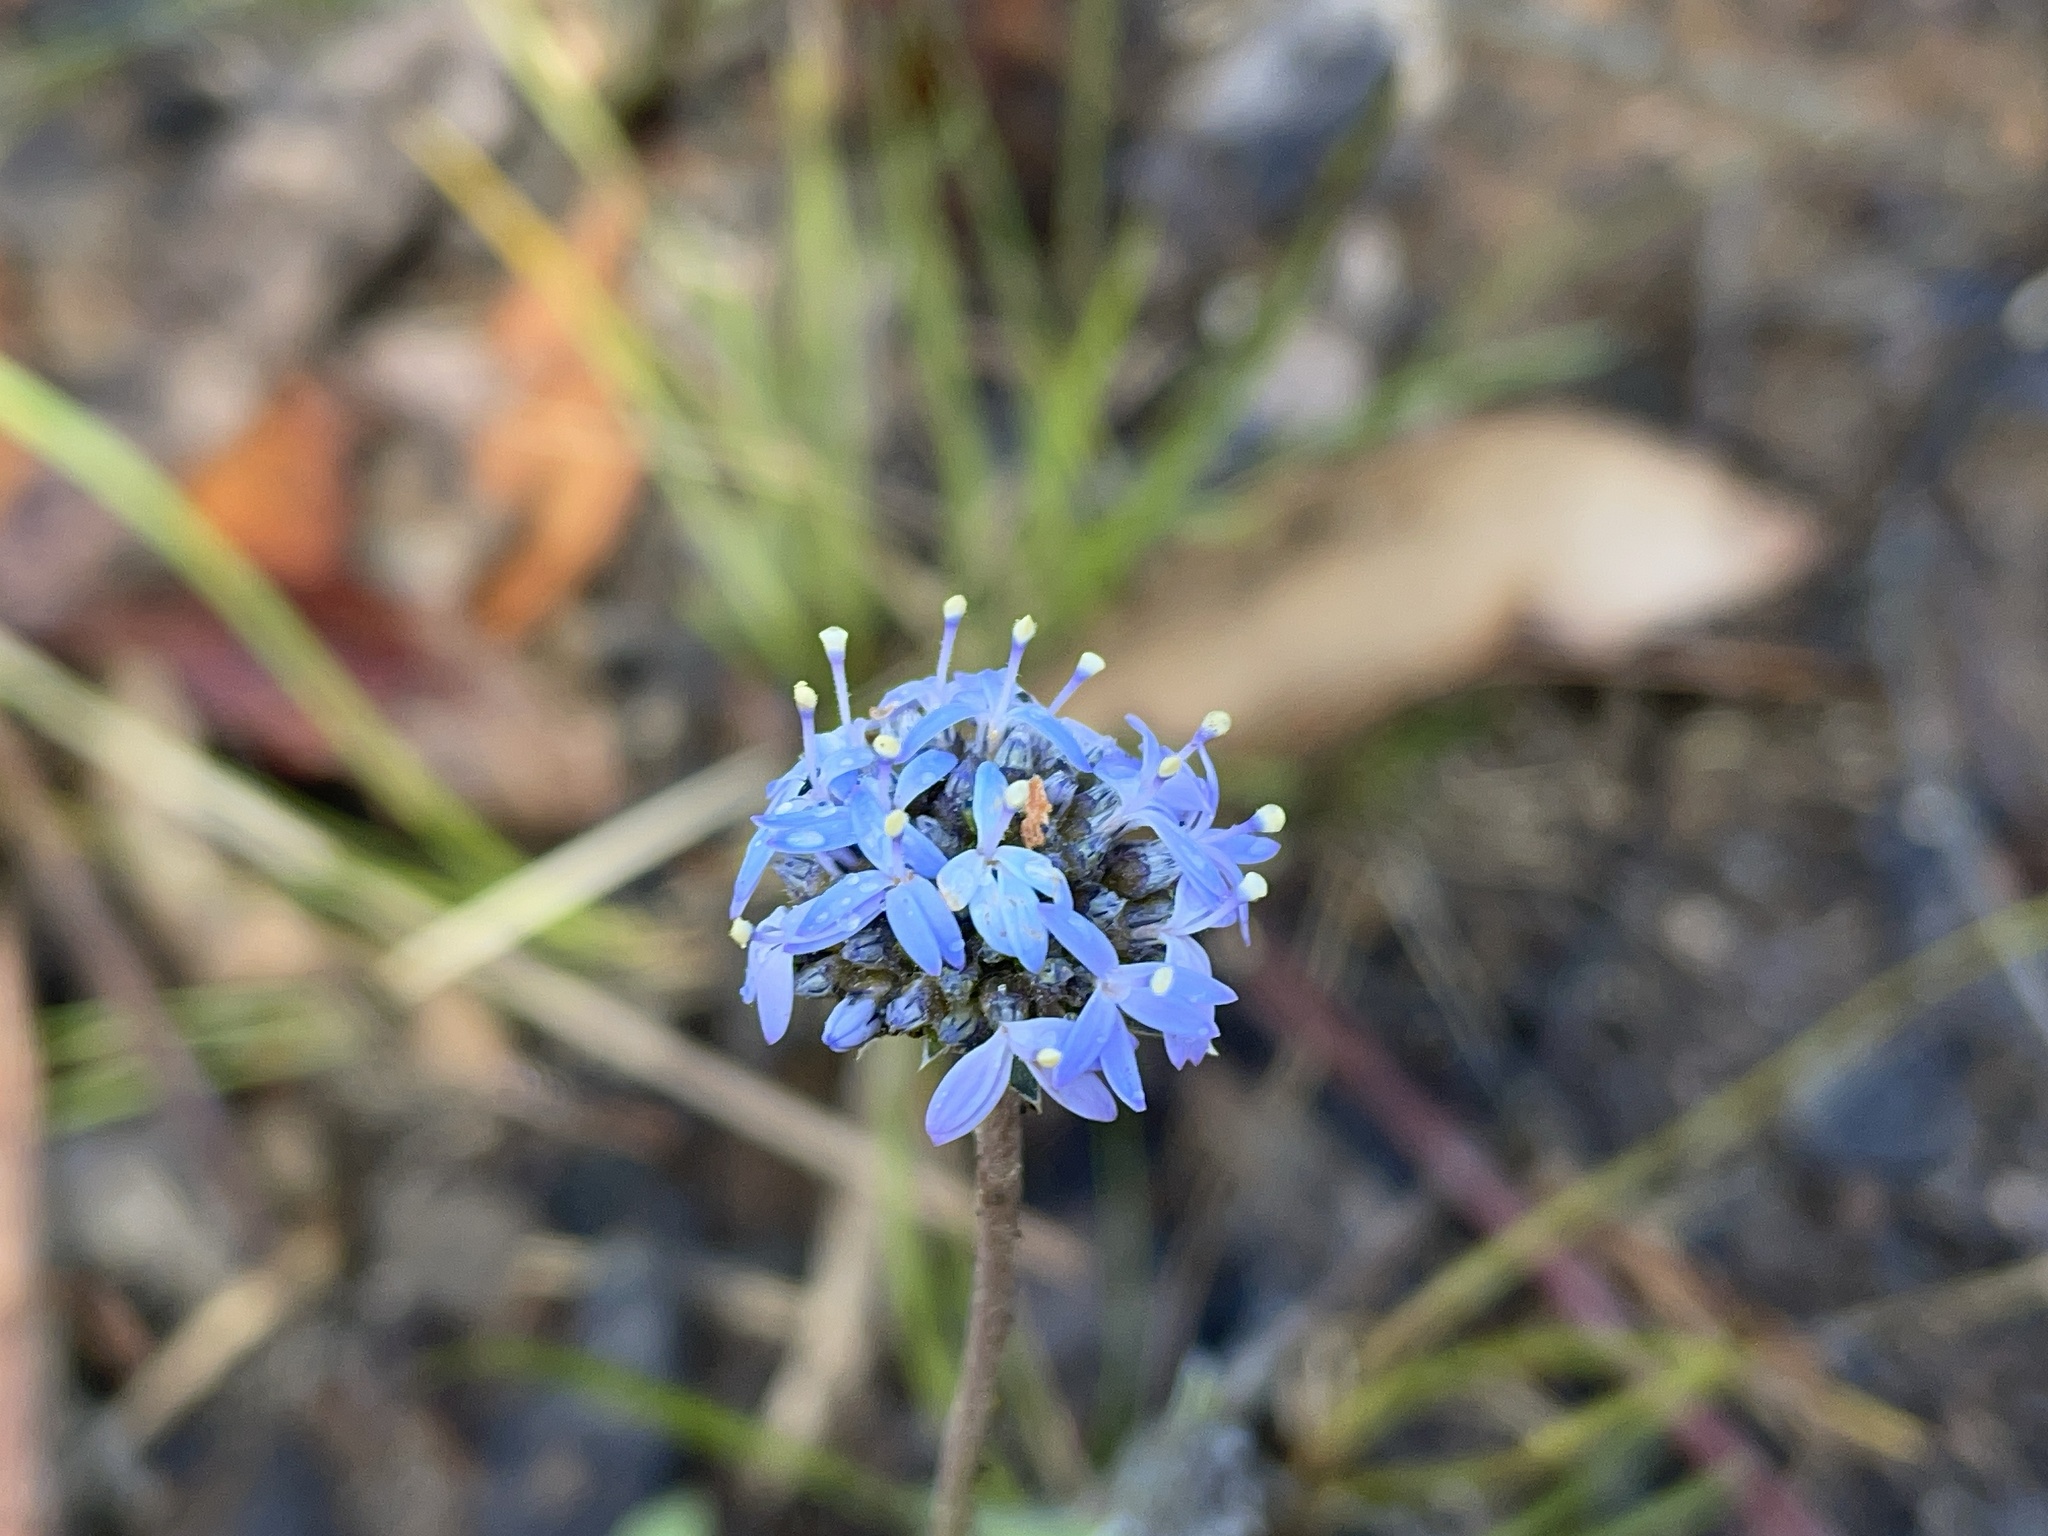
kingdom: Plantae
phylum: Tracheophyta
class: Magnoliopsida
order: Asterales
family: Goodeniaceae
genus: Brunonia
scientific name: Brunonia australis
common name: Blue pincushion
